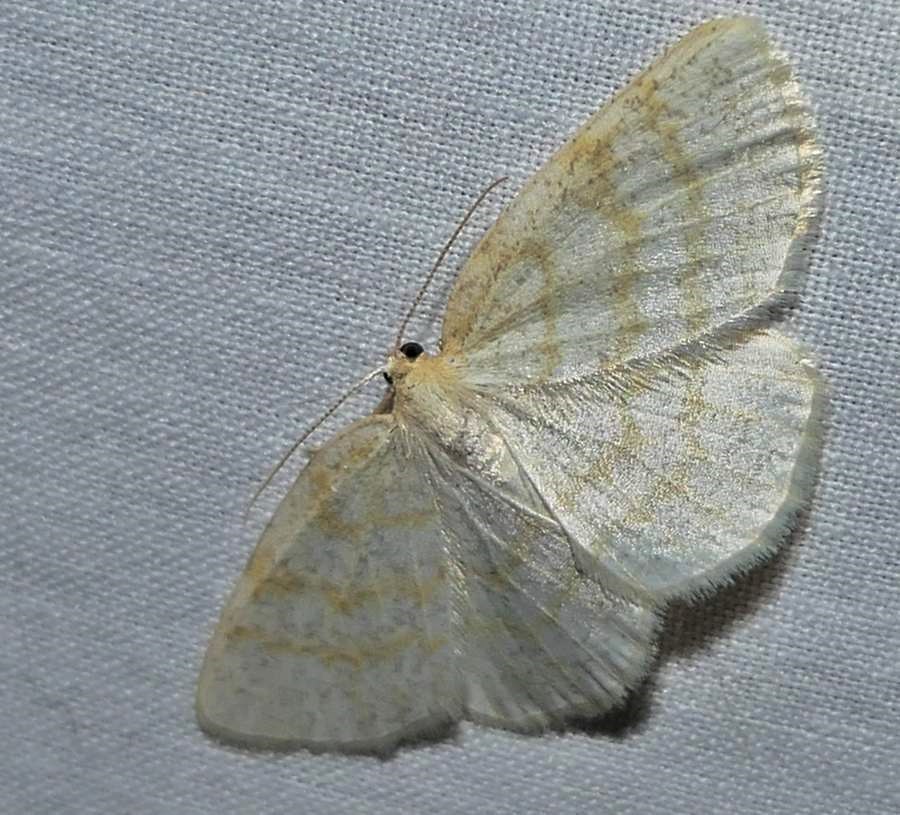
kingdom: Animalia
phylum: Arthropoda
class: Insecta
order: Lepidoptera
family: Geometridae
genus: Cabera
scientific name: Cabera erythemaria
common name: Yellow-dusted cream moth
